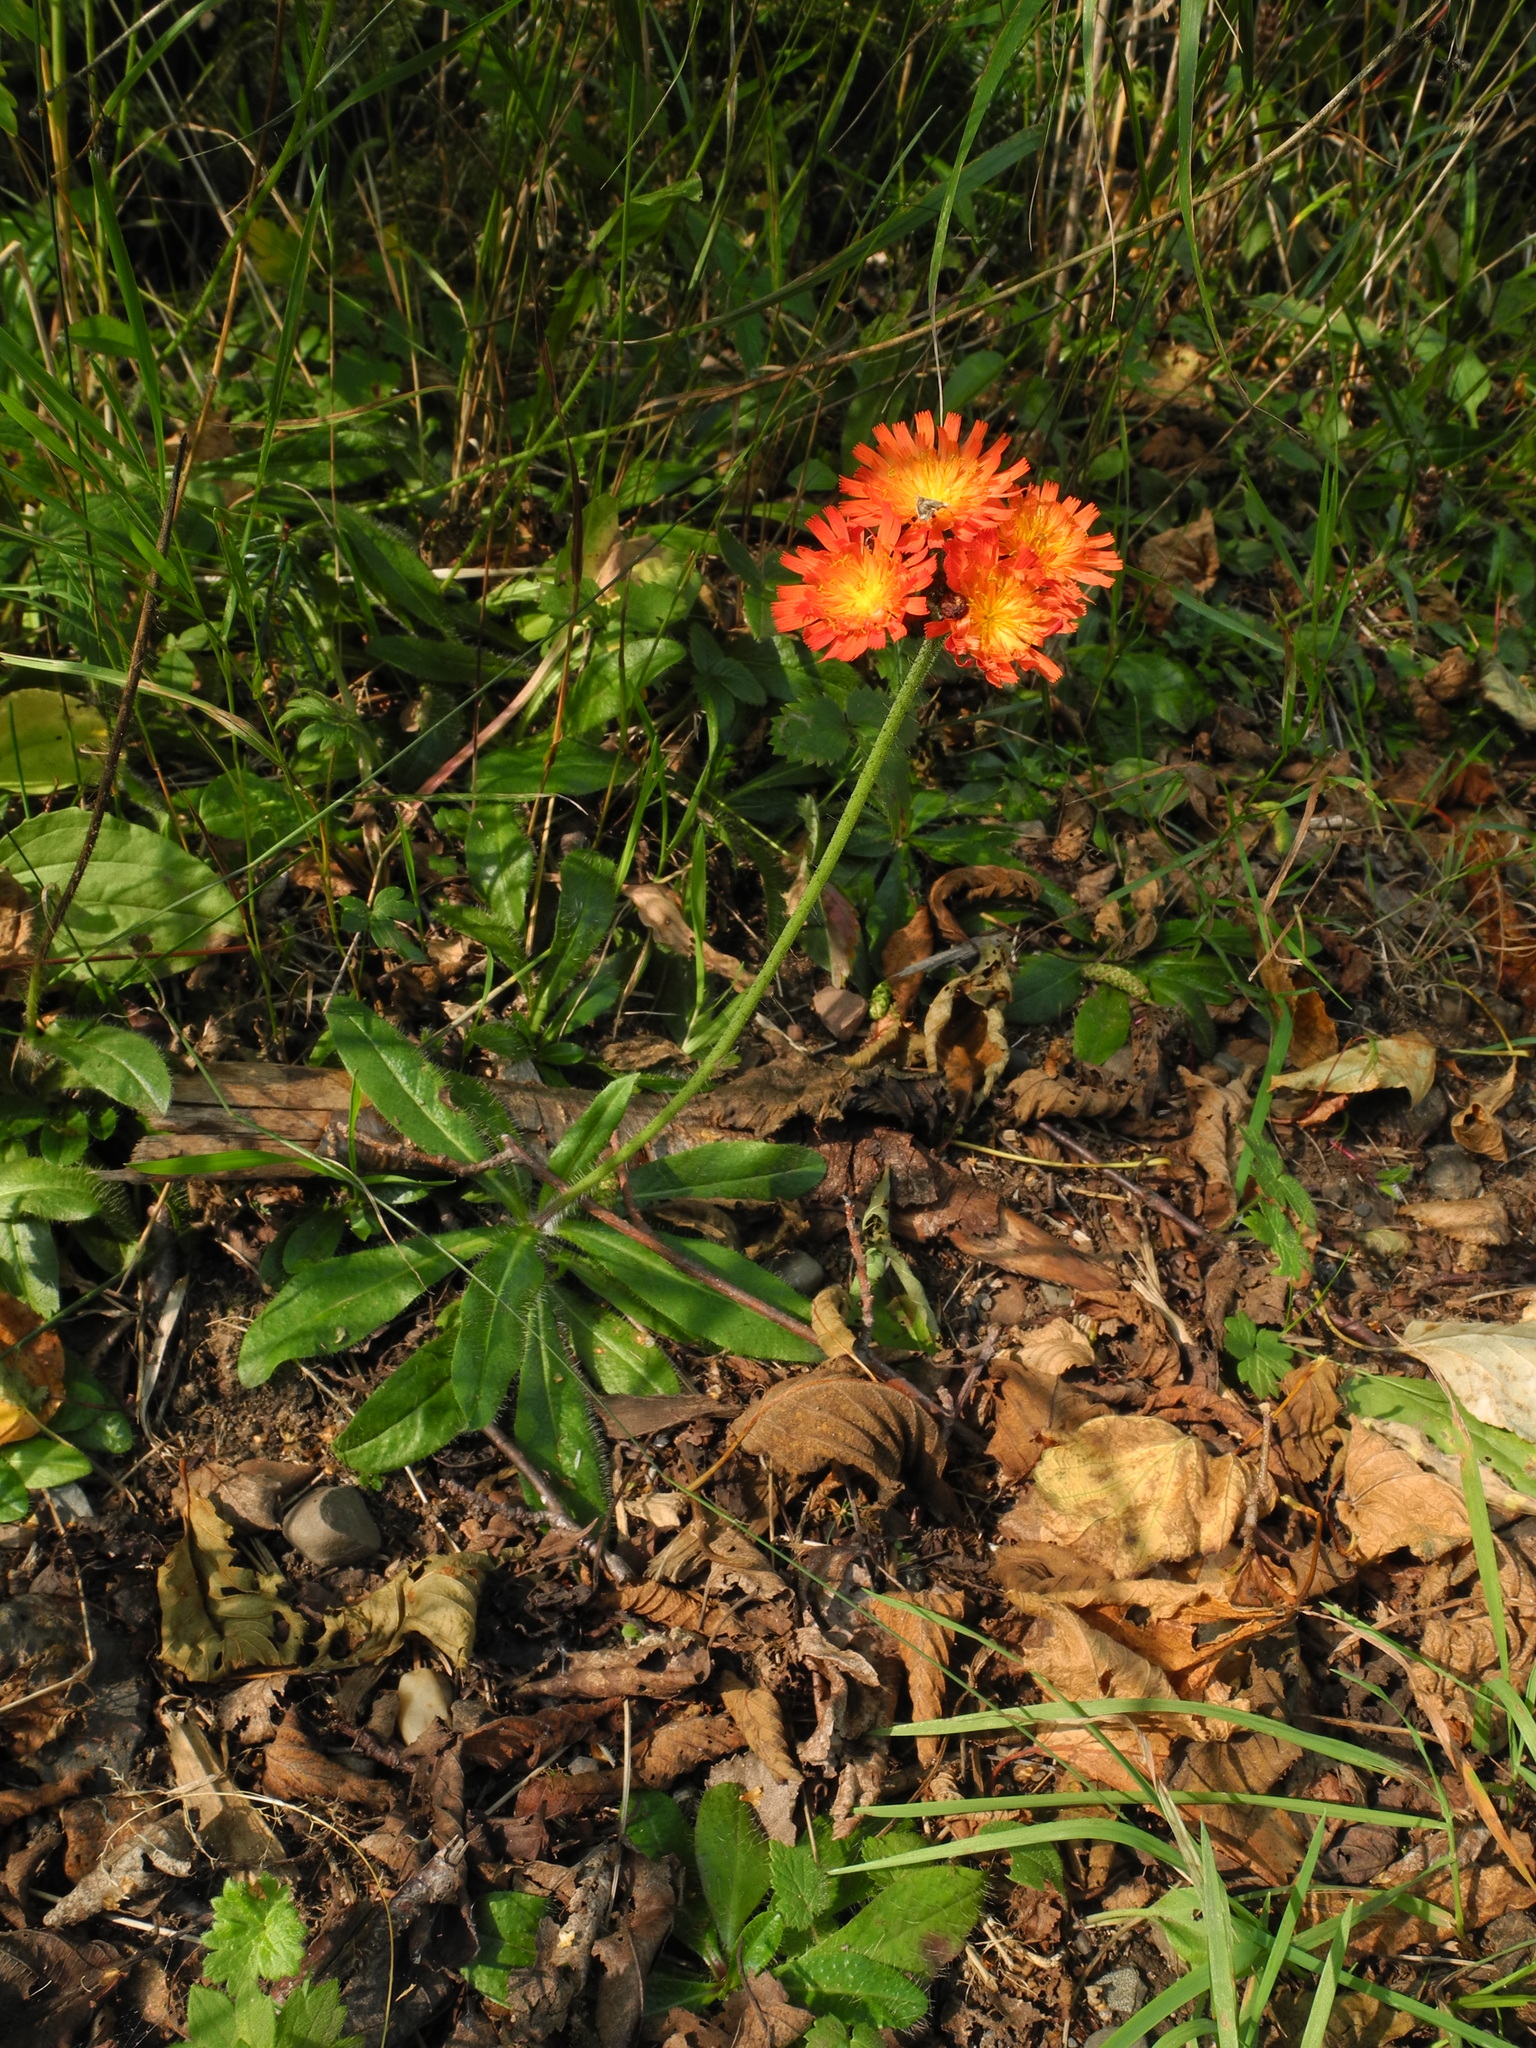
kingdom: Plantae
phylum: Tracheophyta
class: Magnoliopsida
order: Asterales
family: Asteraceae
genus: Pilosella
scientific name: Pilosella aurantiaca
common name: Fox-and-cubs
